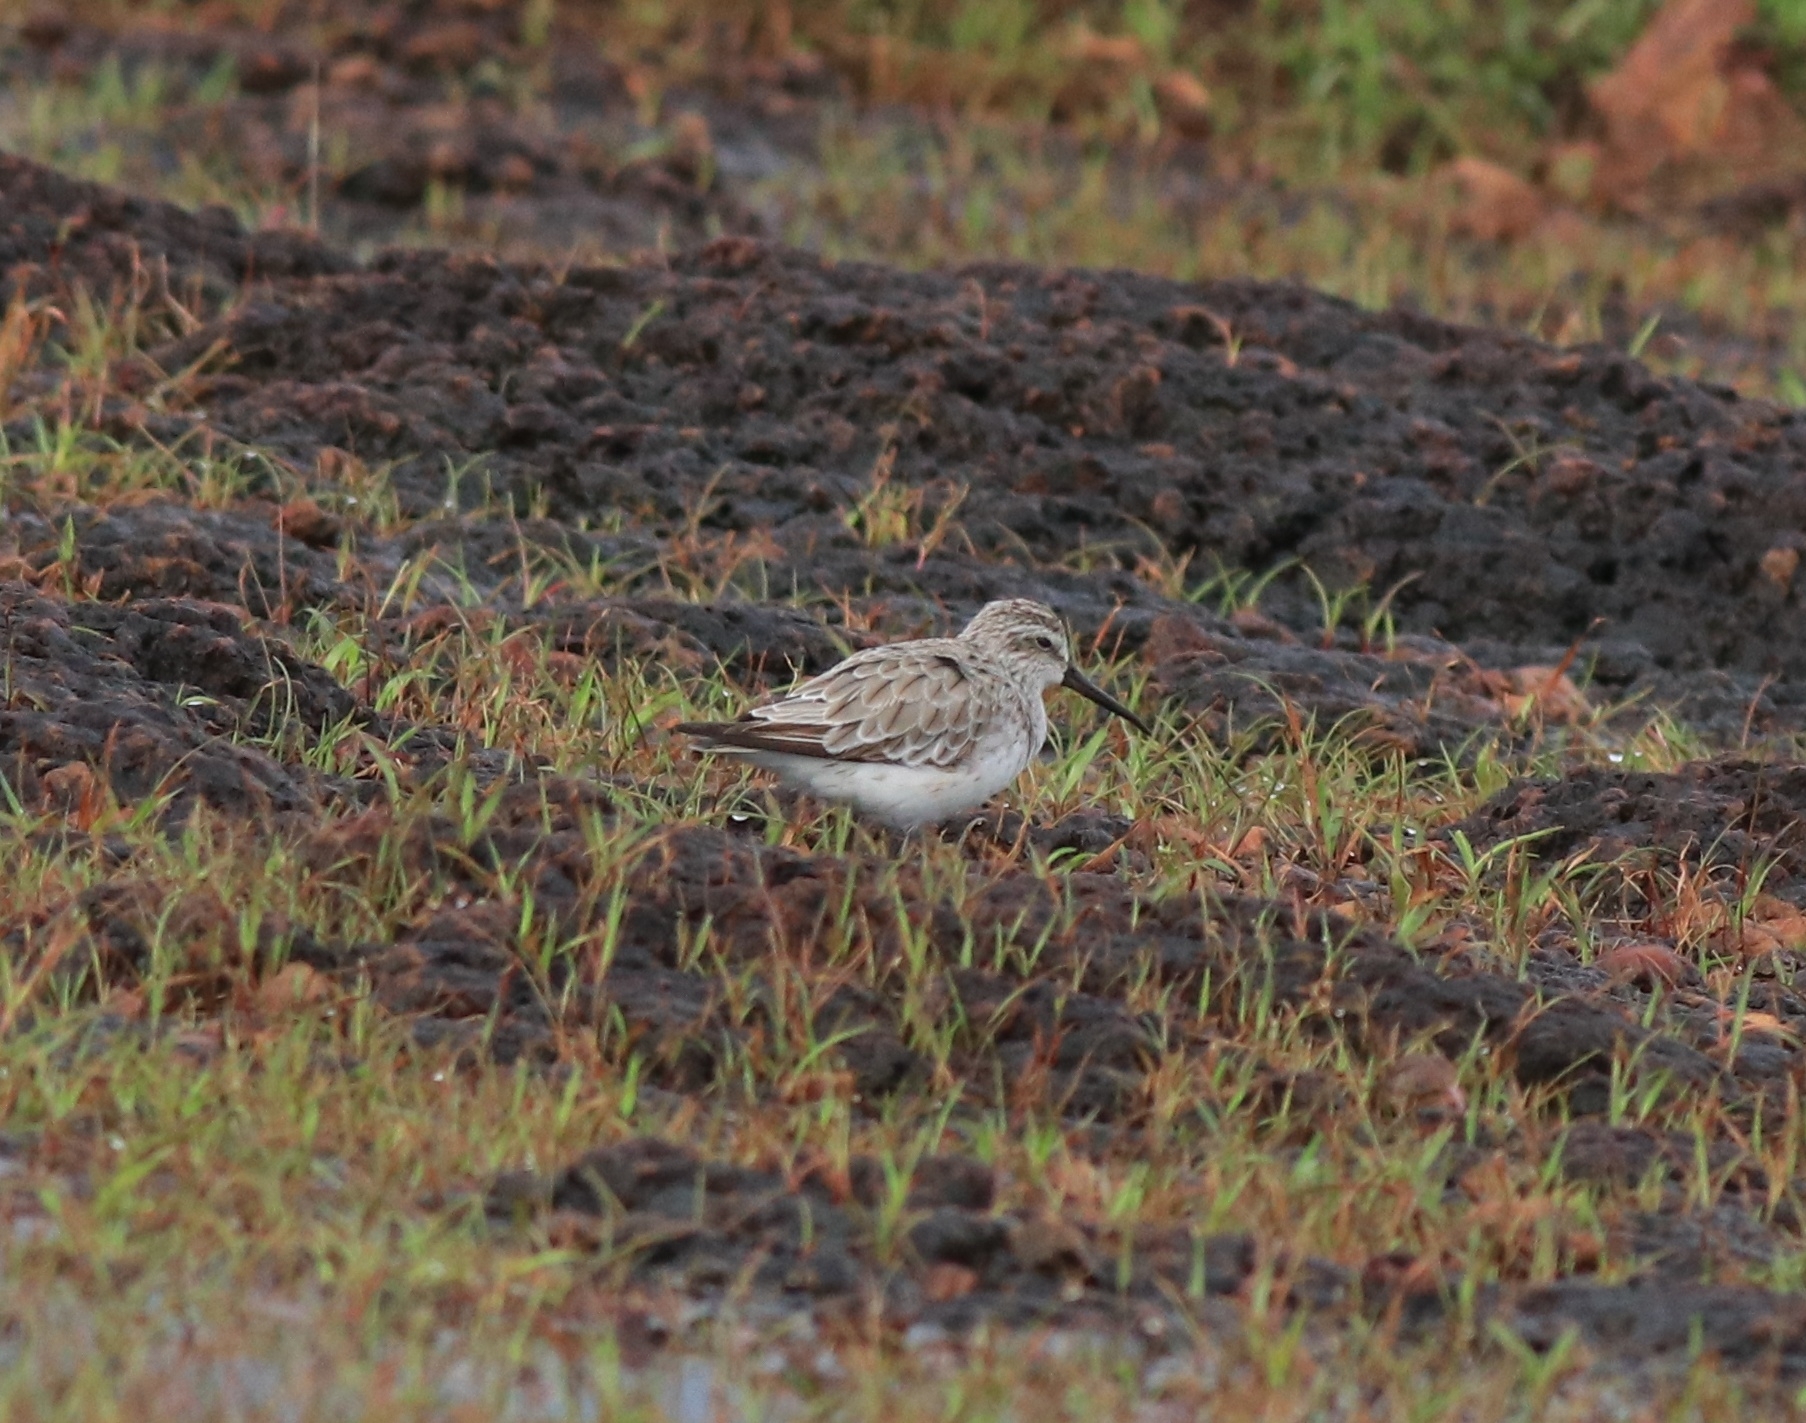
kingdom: Animalia
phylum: Chordata
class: Aves
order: Charadriiformes
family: Scolopacidae
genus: Calidris
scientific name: Calidris falcinellus
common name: Broad-billed sandpiper
